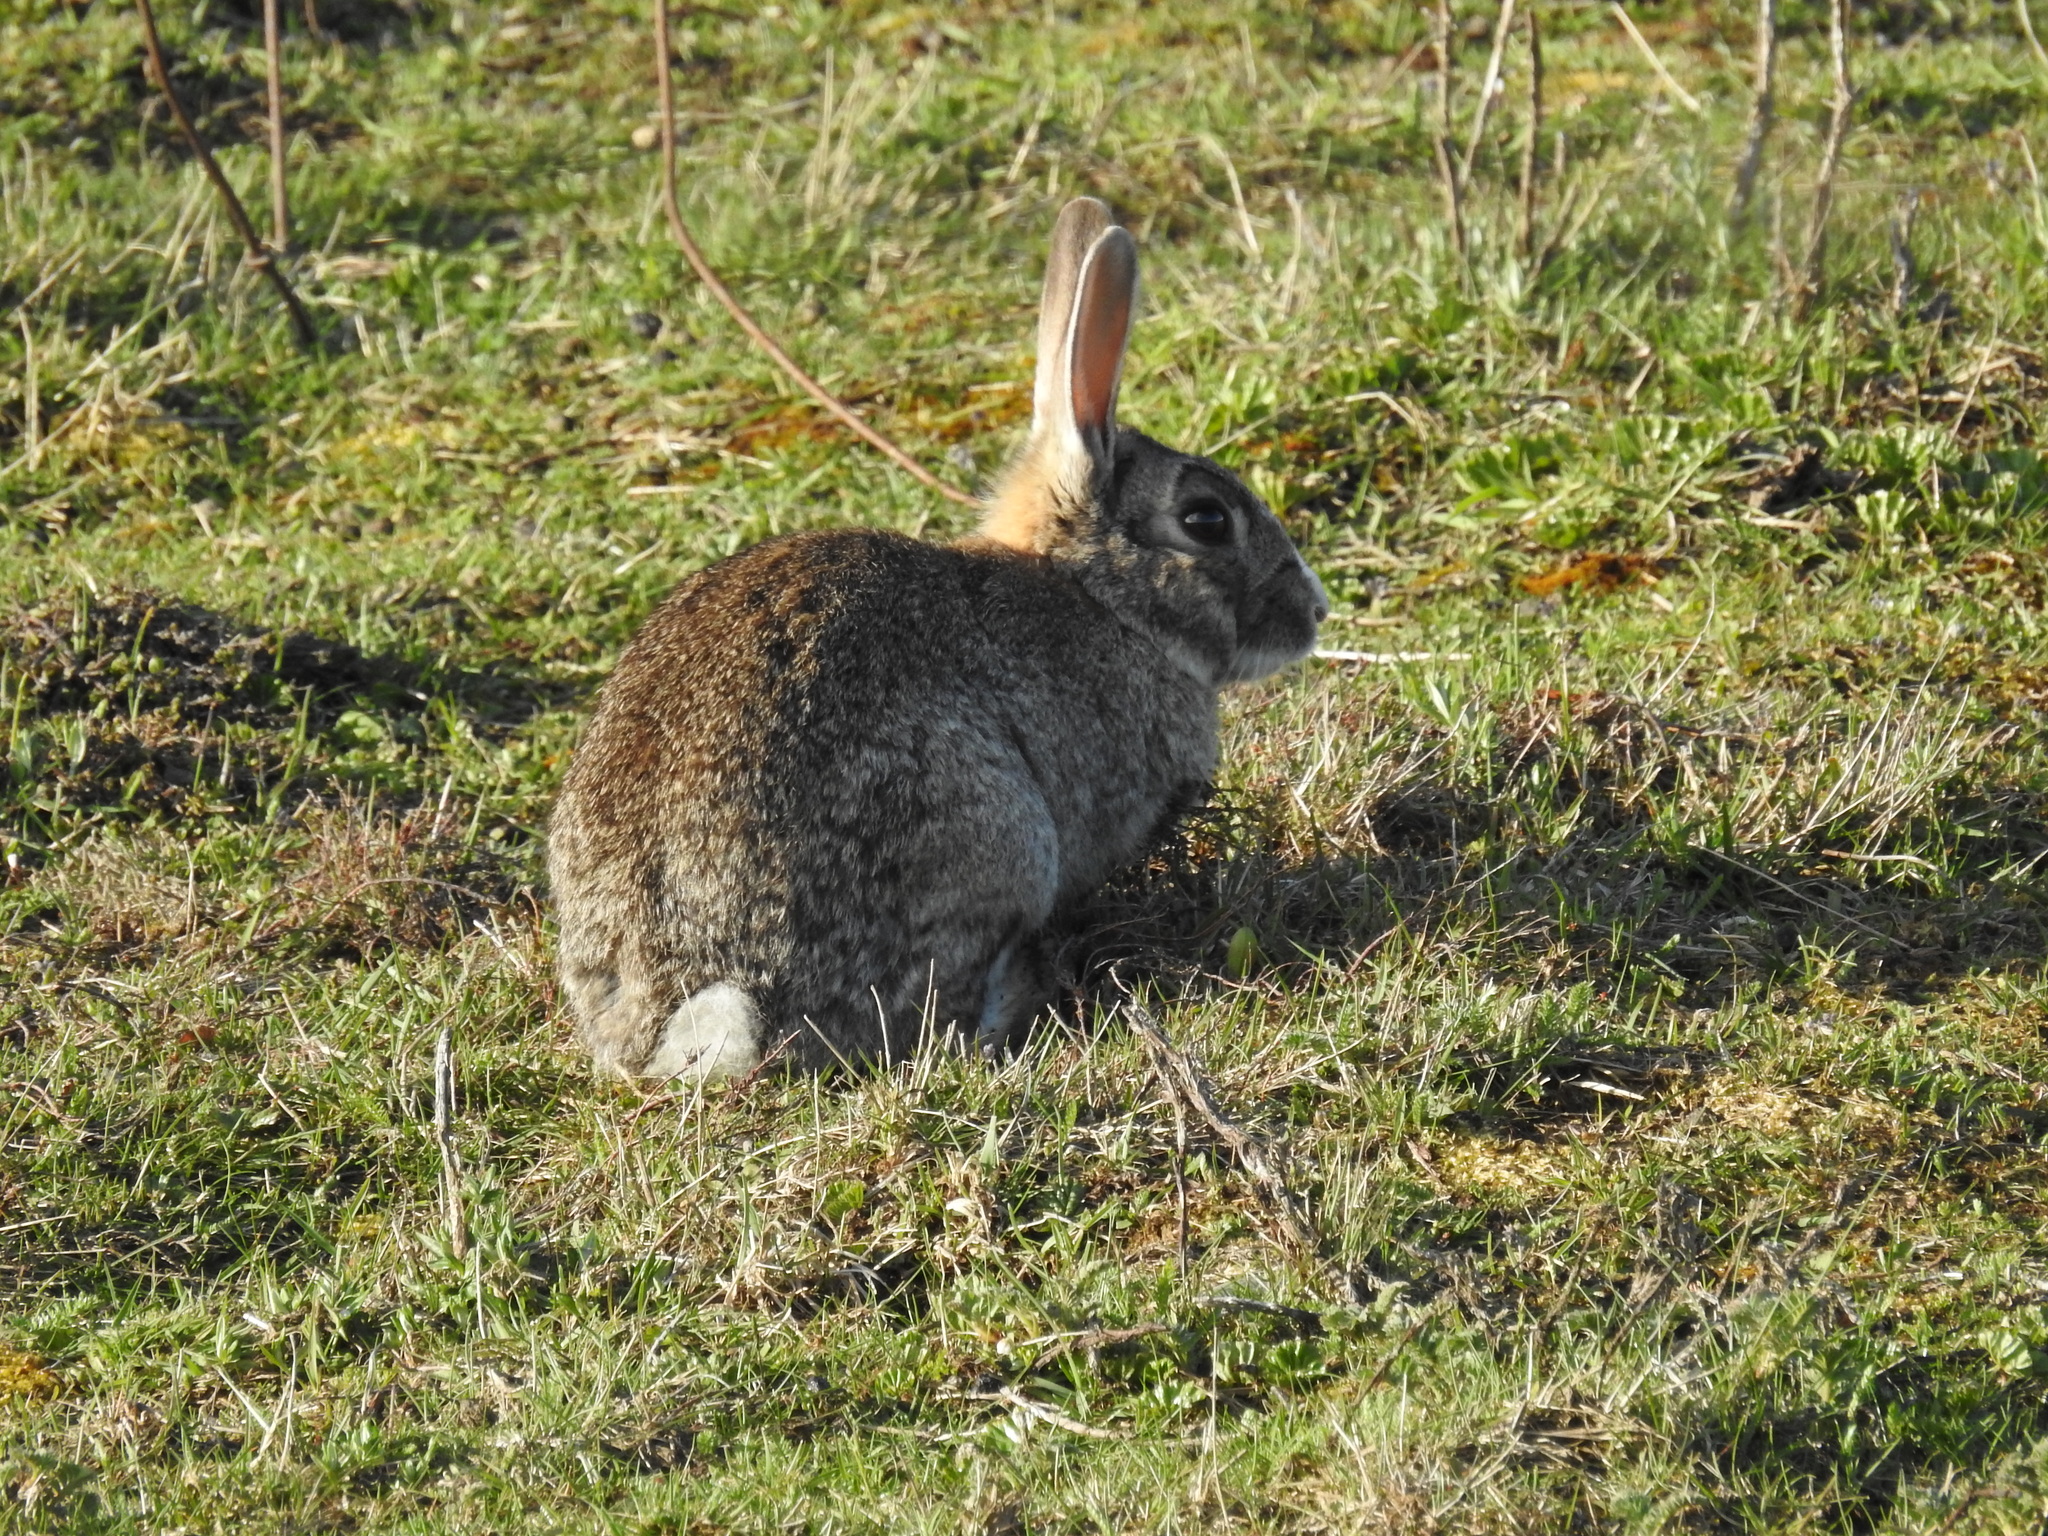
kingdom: Animalia
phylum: Chordata
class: Mammalia
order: Lagomorpha
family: Leporidae
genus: Oryctolagus
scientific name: Oryctolagus cuniculus
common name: European rabbit
